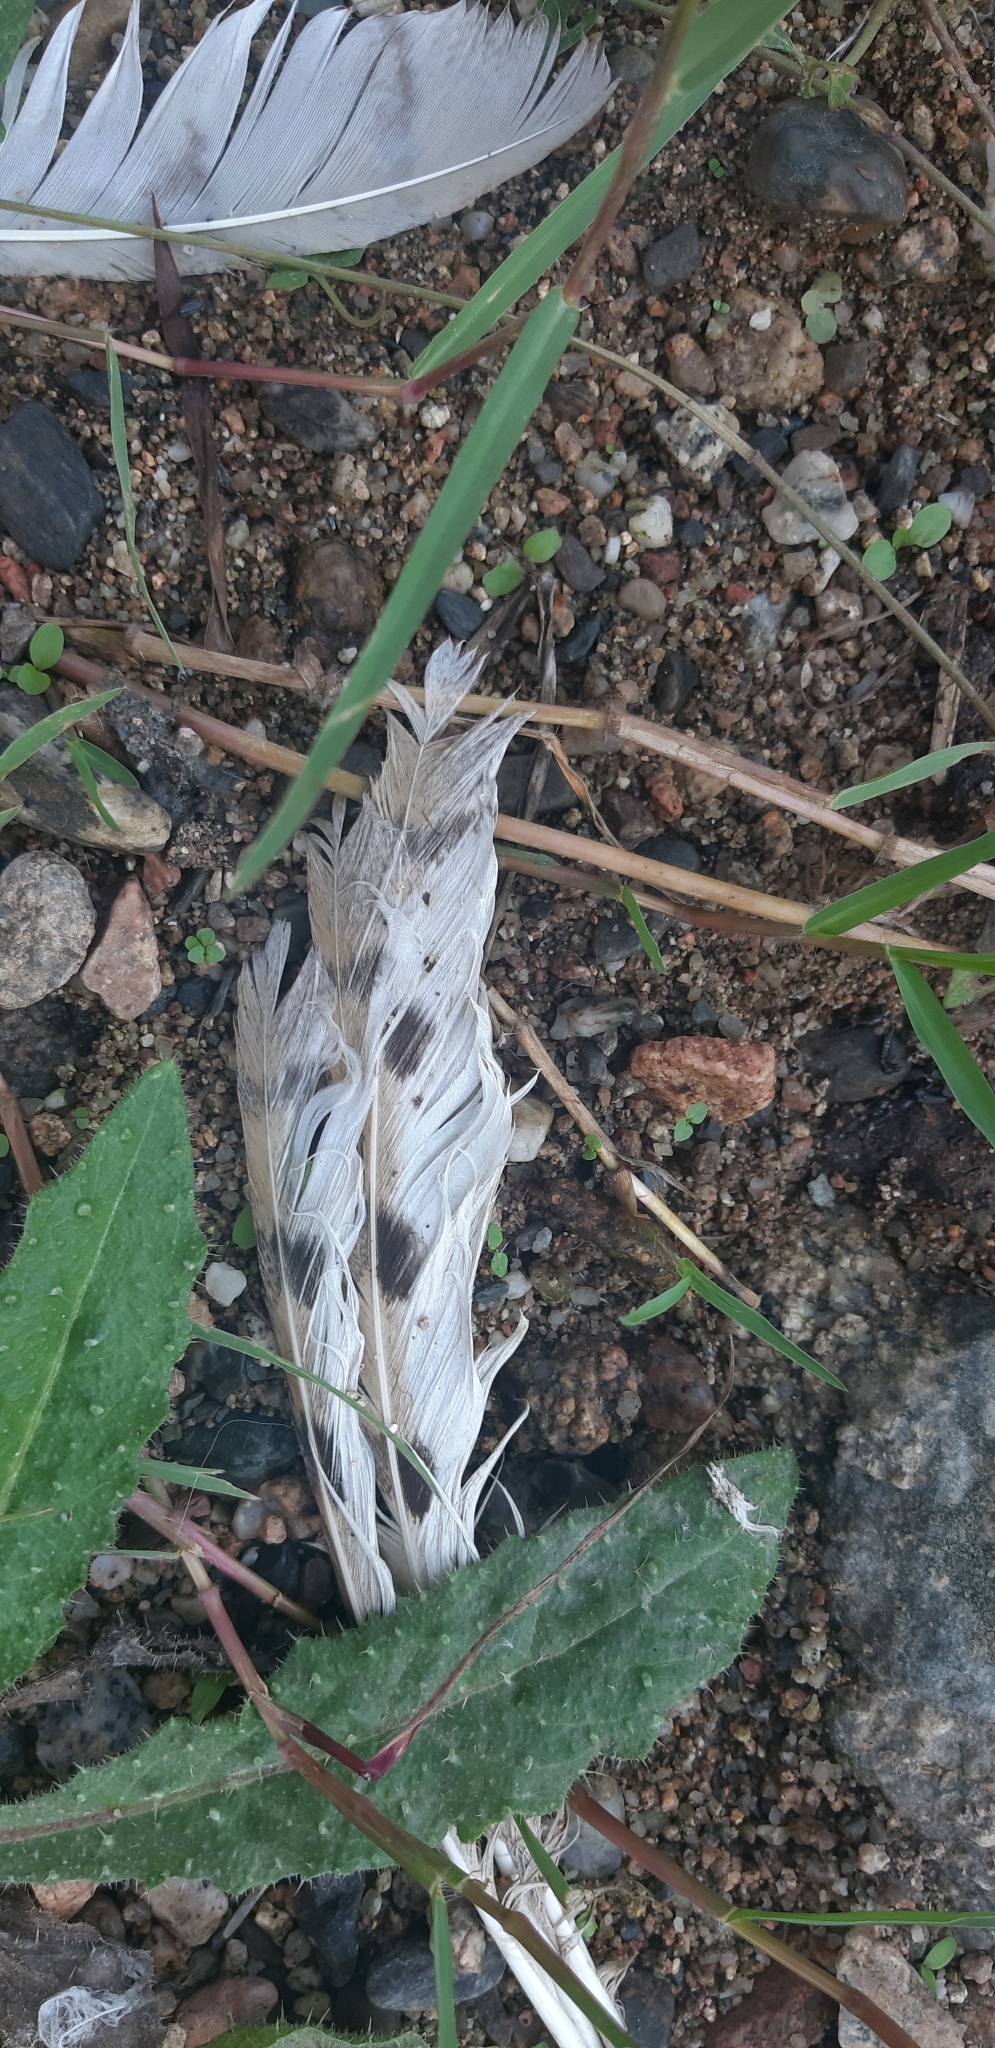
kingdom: Animalia
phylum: Chordata
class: Aves
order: Strigiformes
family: Tytonidae
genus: Tyto
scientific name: Tyto alba
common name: Barn owl
